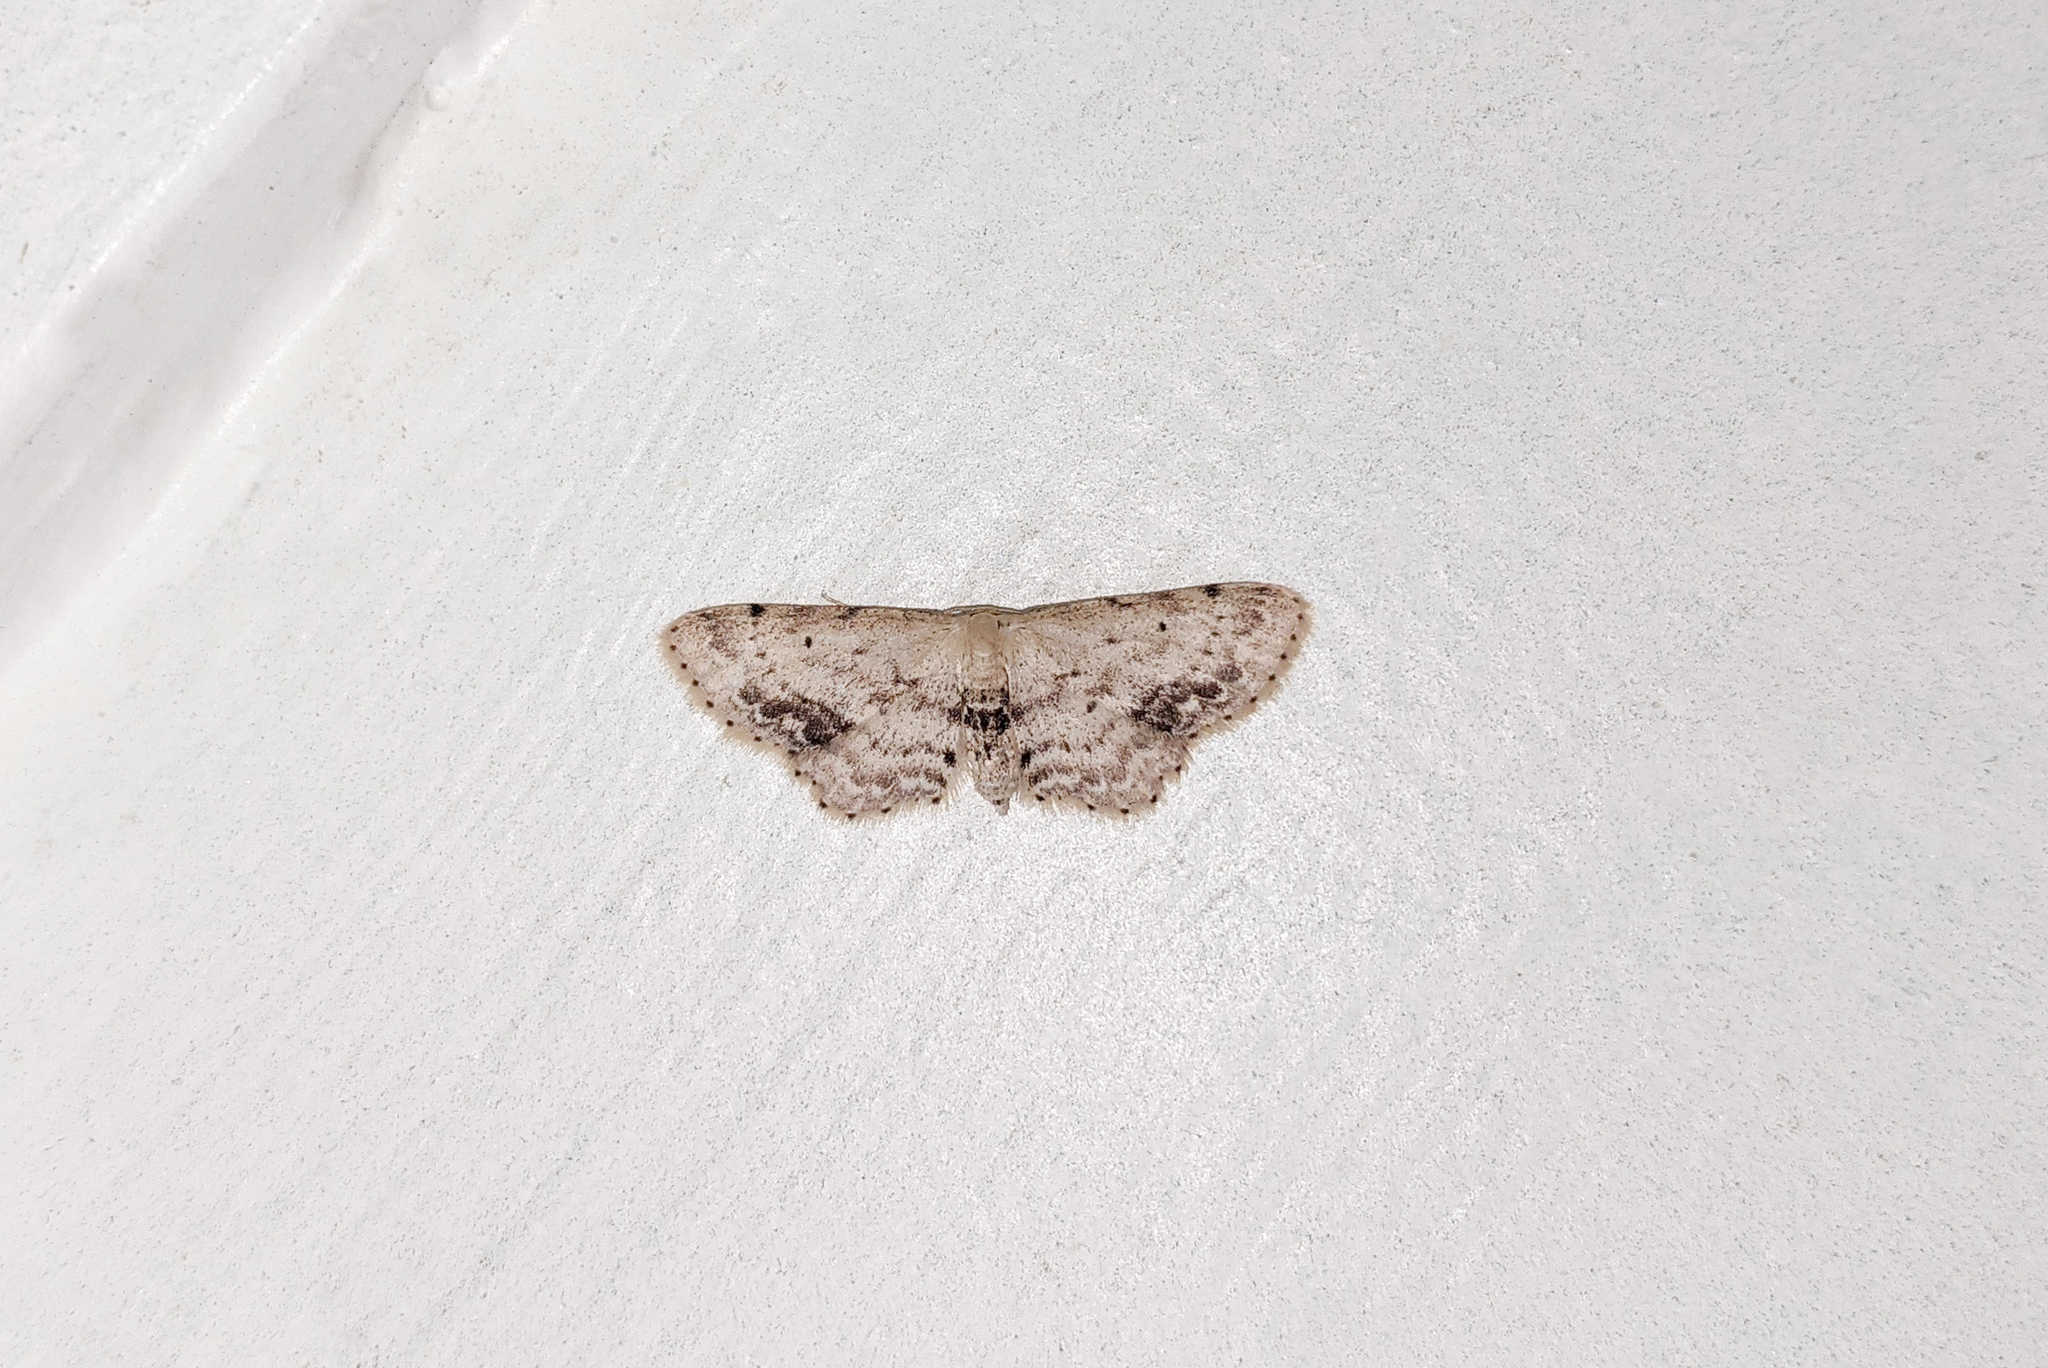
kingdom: Animalia
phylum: Arthropoda
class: Insecta
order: Lepidoptera
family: Geometridae
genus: Idaea
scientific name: Idaea dimidiata
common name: Single-dotted wave
